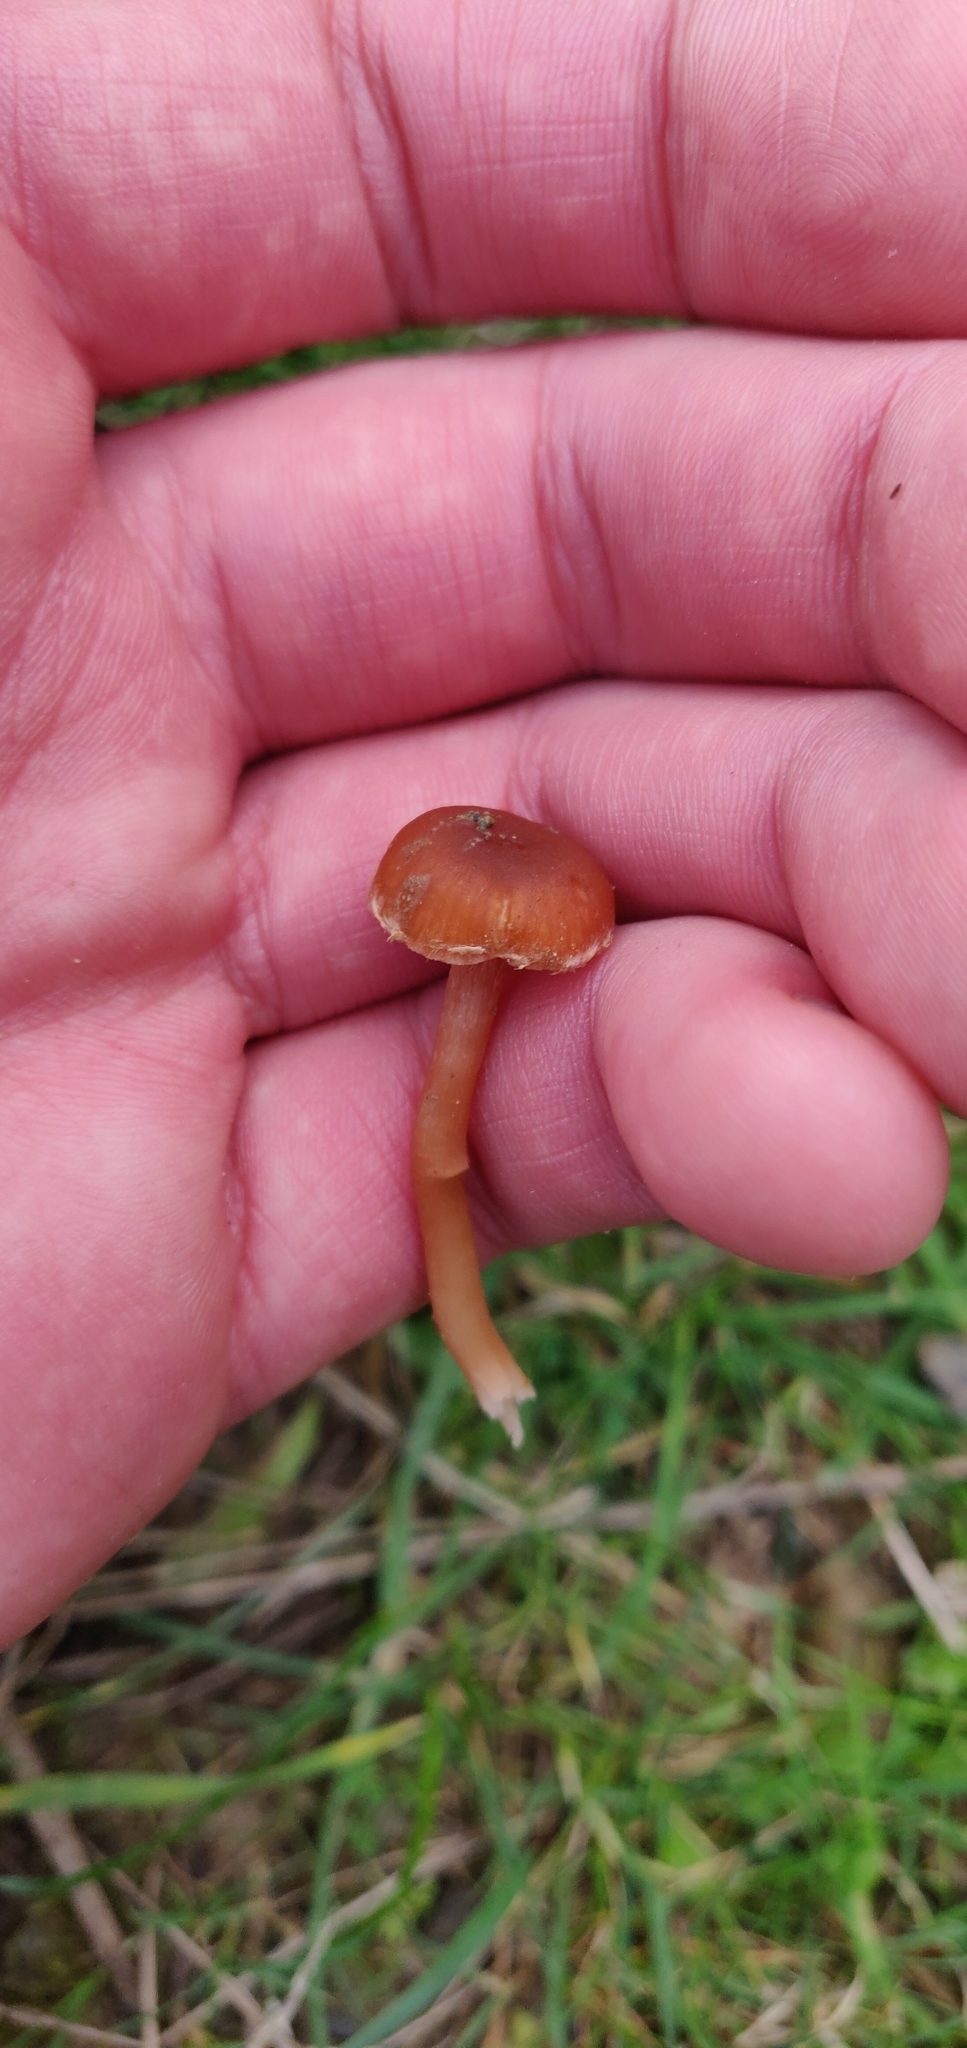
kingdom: Fungi
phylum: Basidiomycota
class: Agaricomycetes
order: Agaricales
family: Tubariaceae
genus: Tubaria
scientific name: Tubaria furfuracea
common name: Scurfy twiglet
